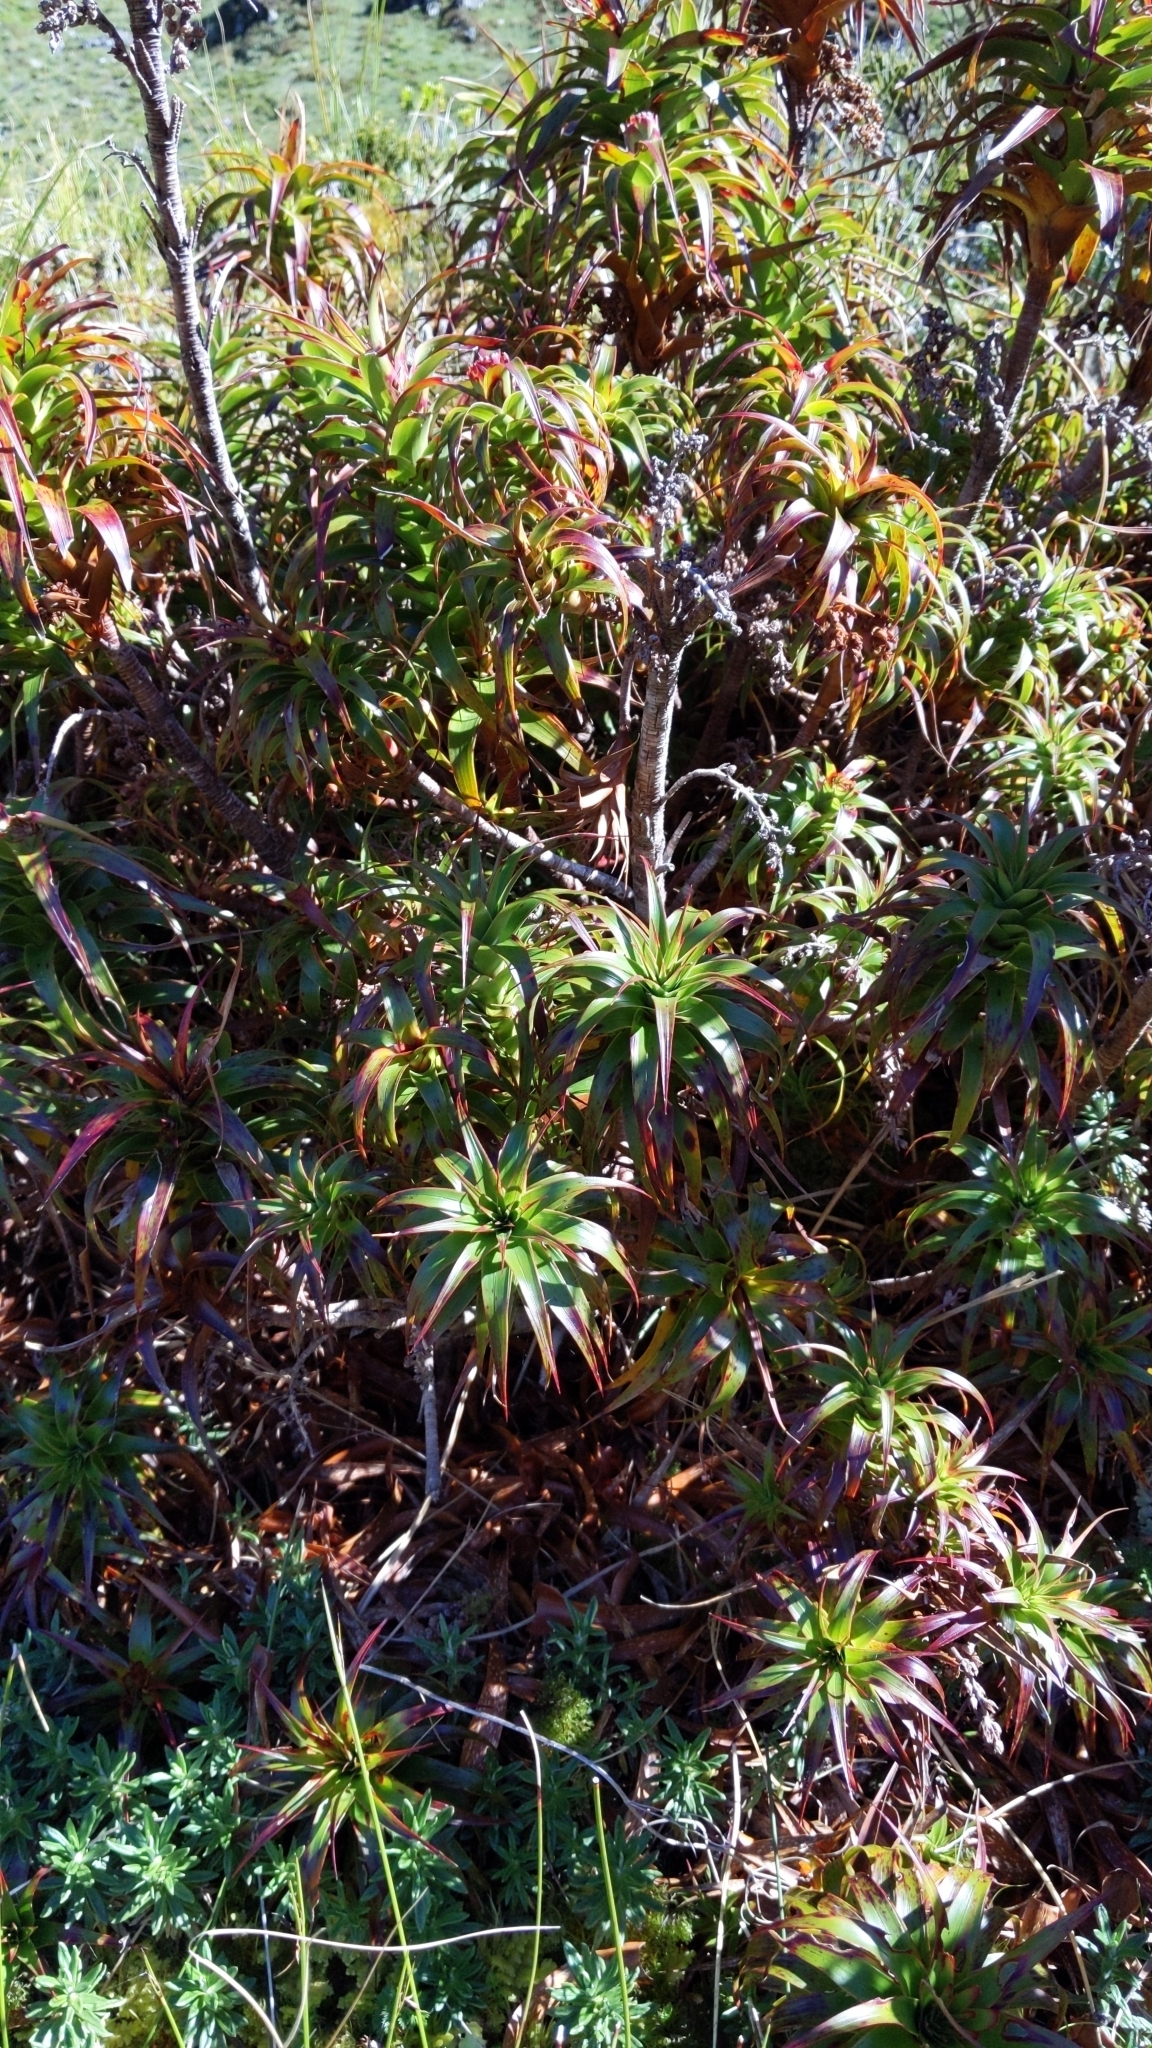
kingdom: Plantae
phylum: Tracheophyta
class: Magnoliopsida
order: Ericales
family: Ericaceae
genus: Dracophyllum
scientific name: Dracophyllum menziesii
